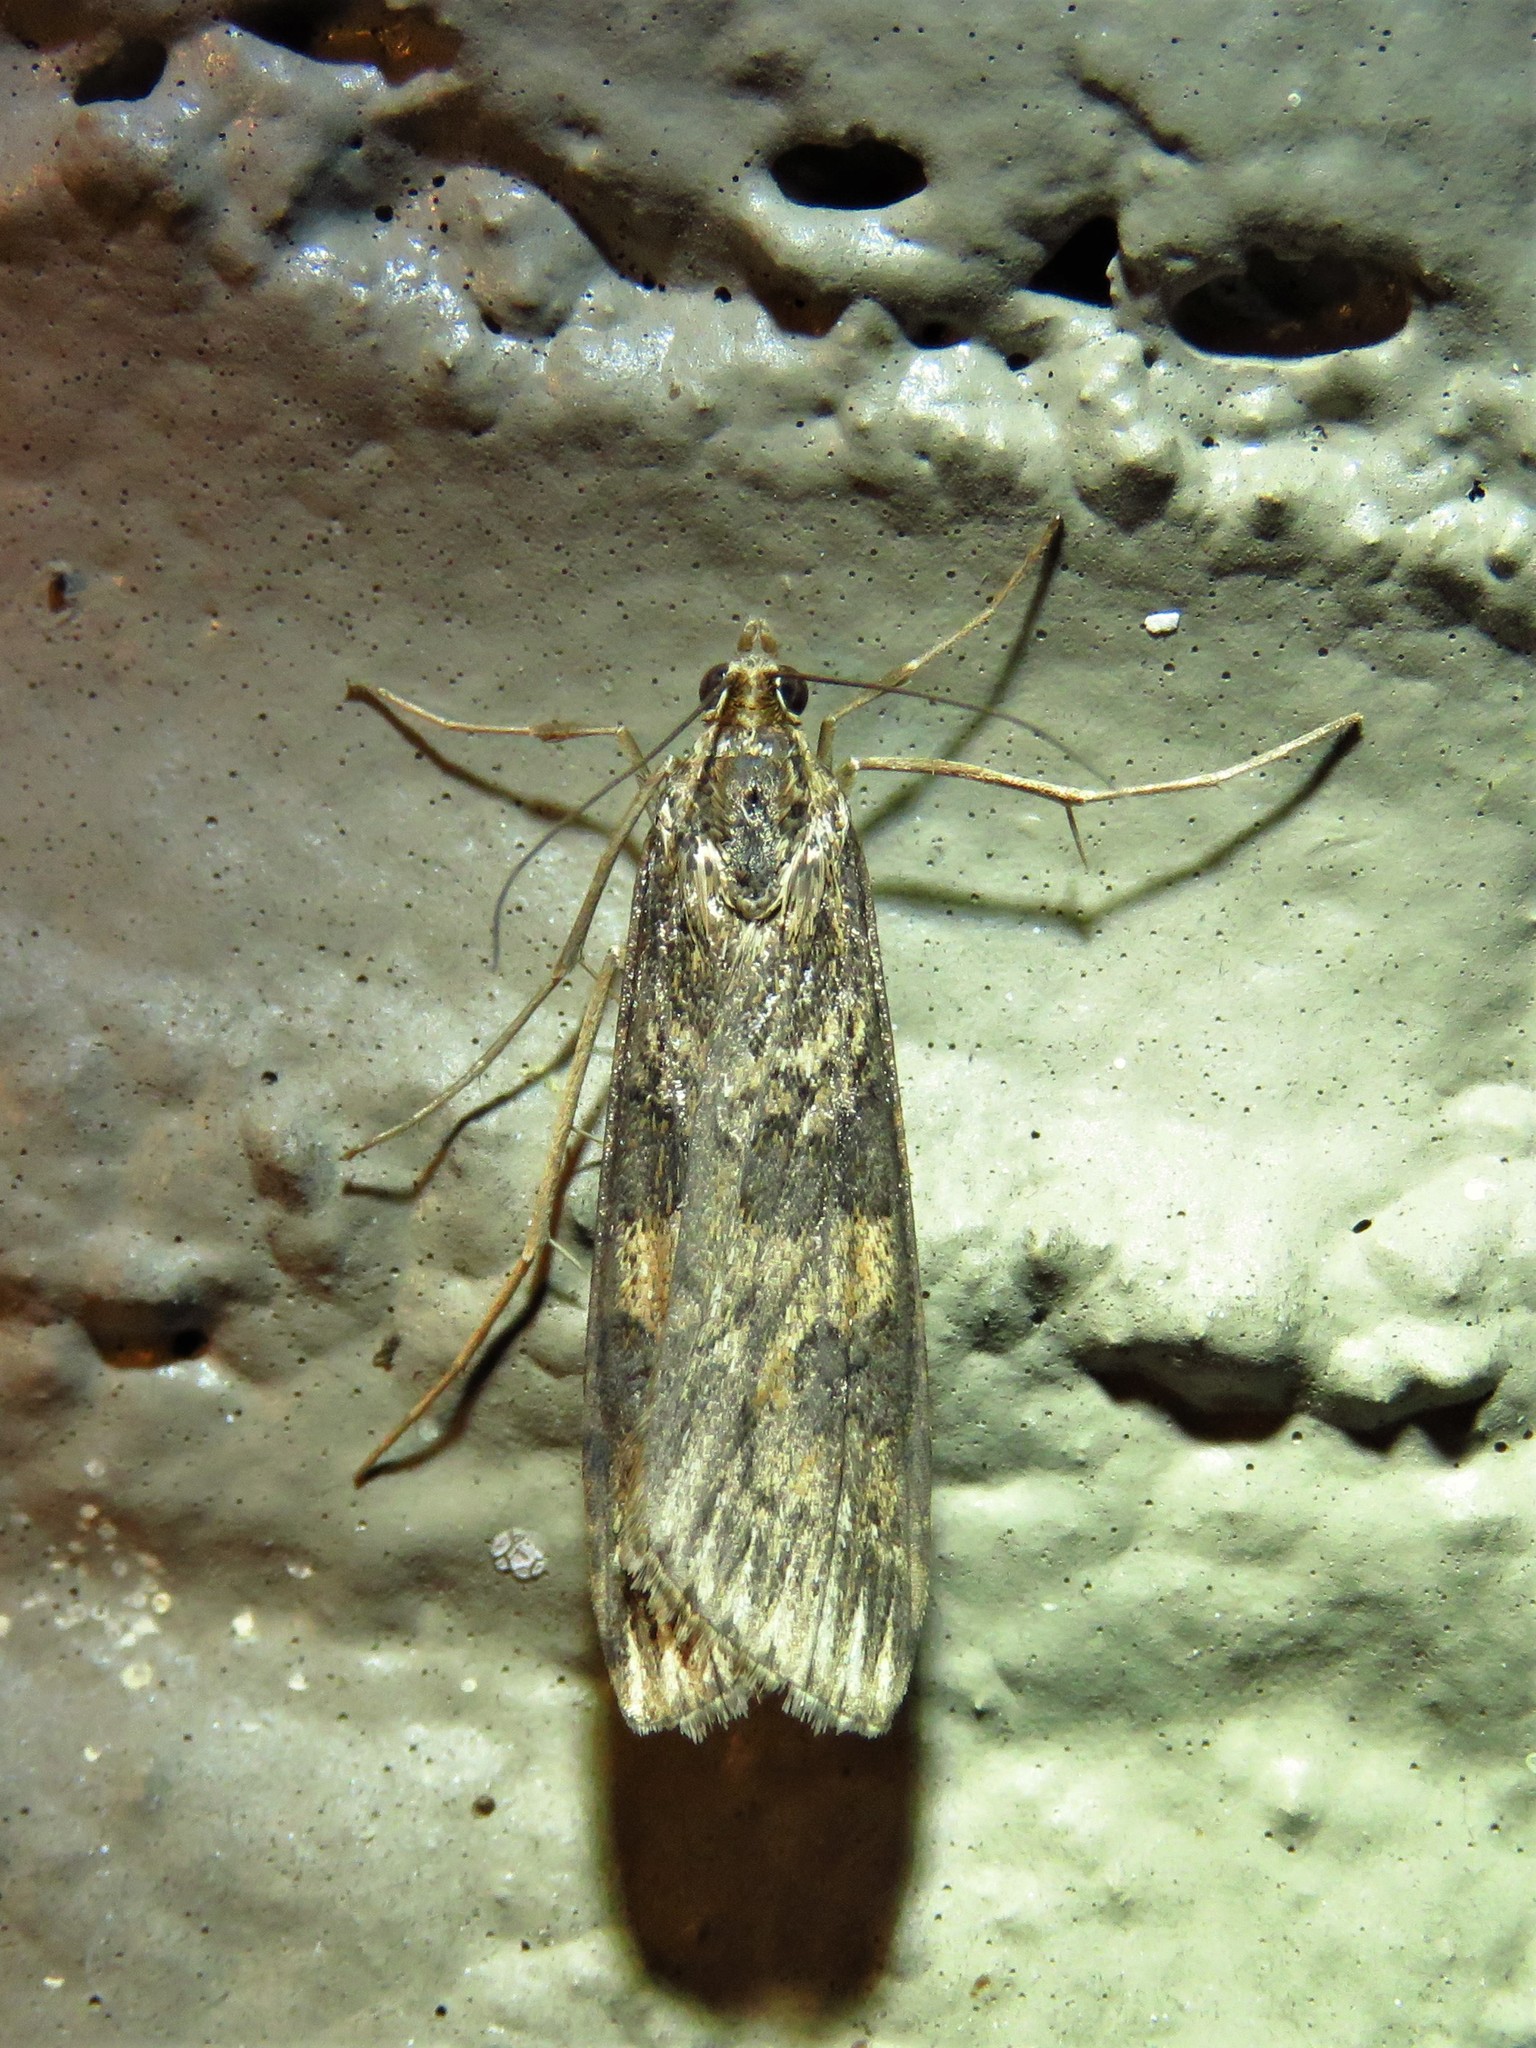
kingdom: Animalia
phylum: Arthropoda
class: Insecta
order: Lepidoptera
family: Crambidae
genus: Nomophila
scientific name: Nomophila nearctica
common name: American rush veneer
